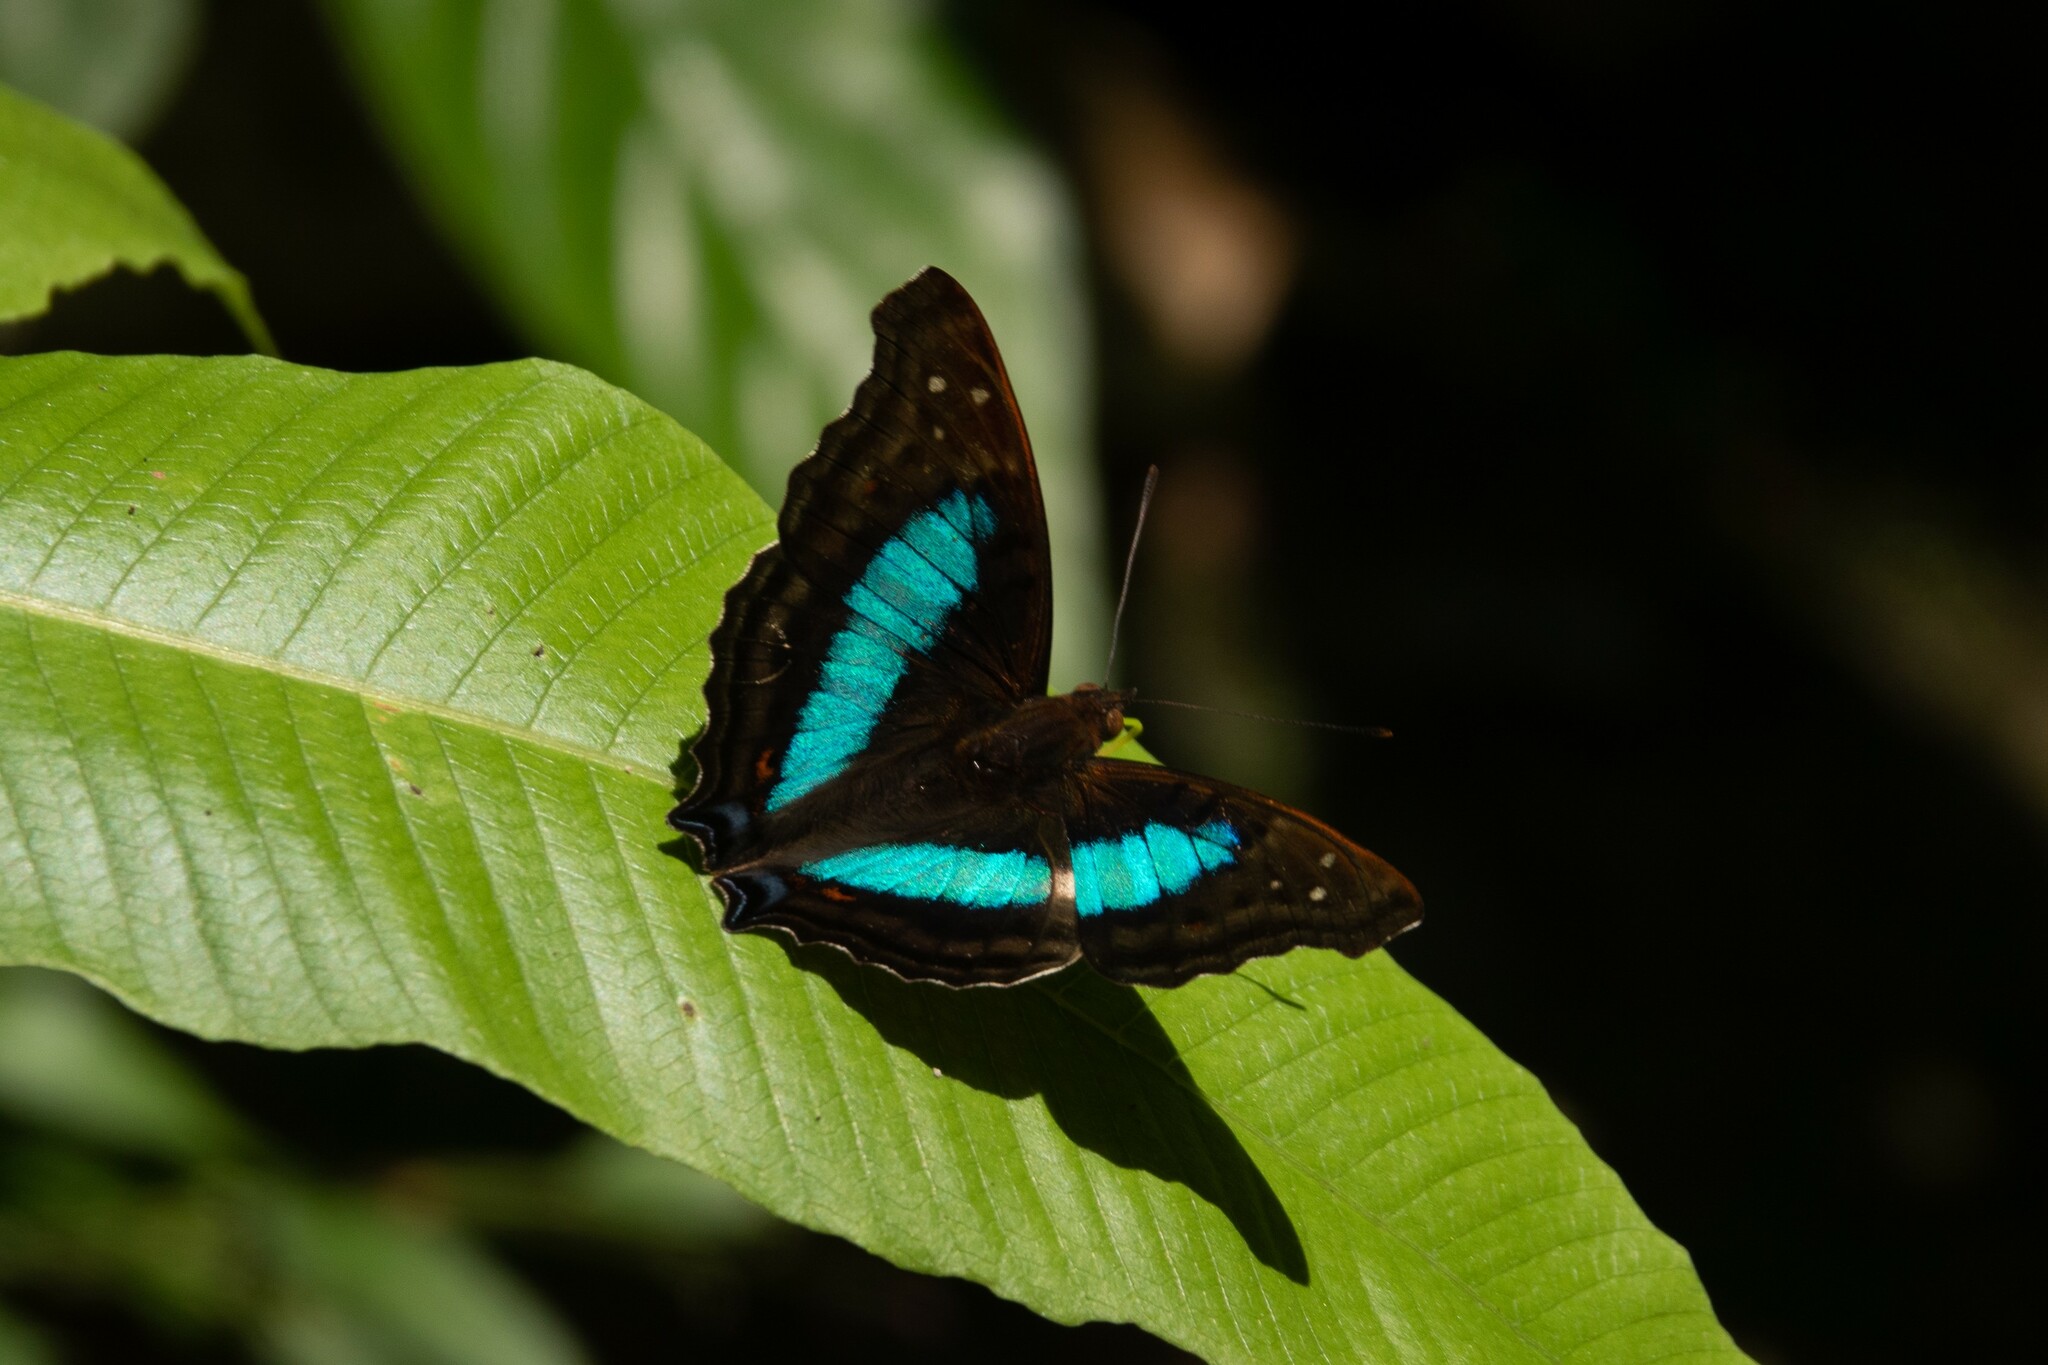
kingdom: Animalia
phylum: Arthropoda
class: Insecta
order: Lepidoptera
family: Nymphalidae
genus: Doxocopa
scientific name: Doxocopa laurentia
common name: Turquoise emperor
